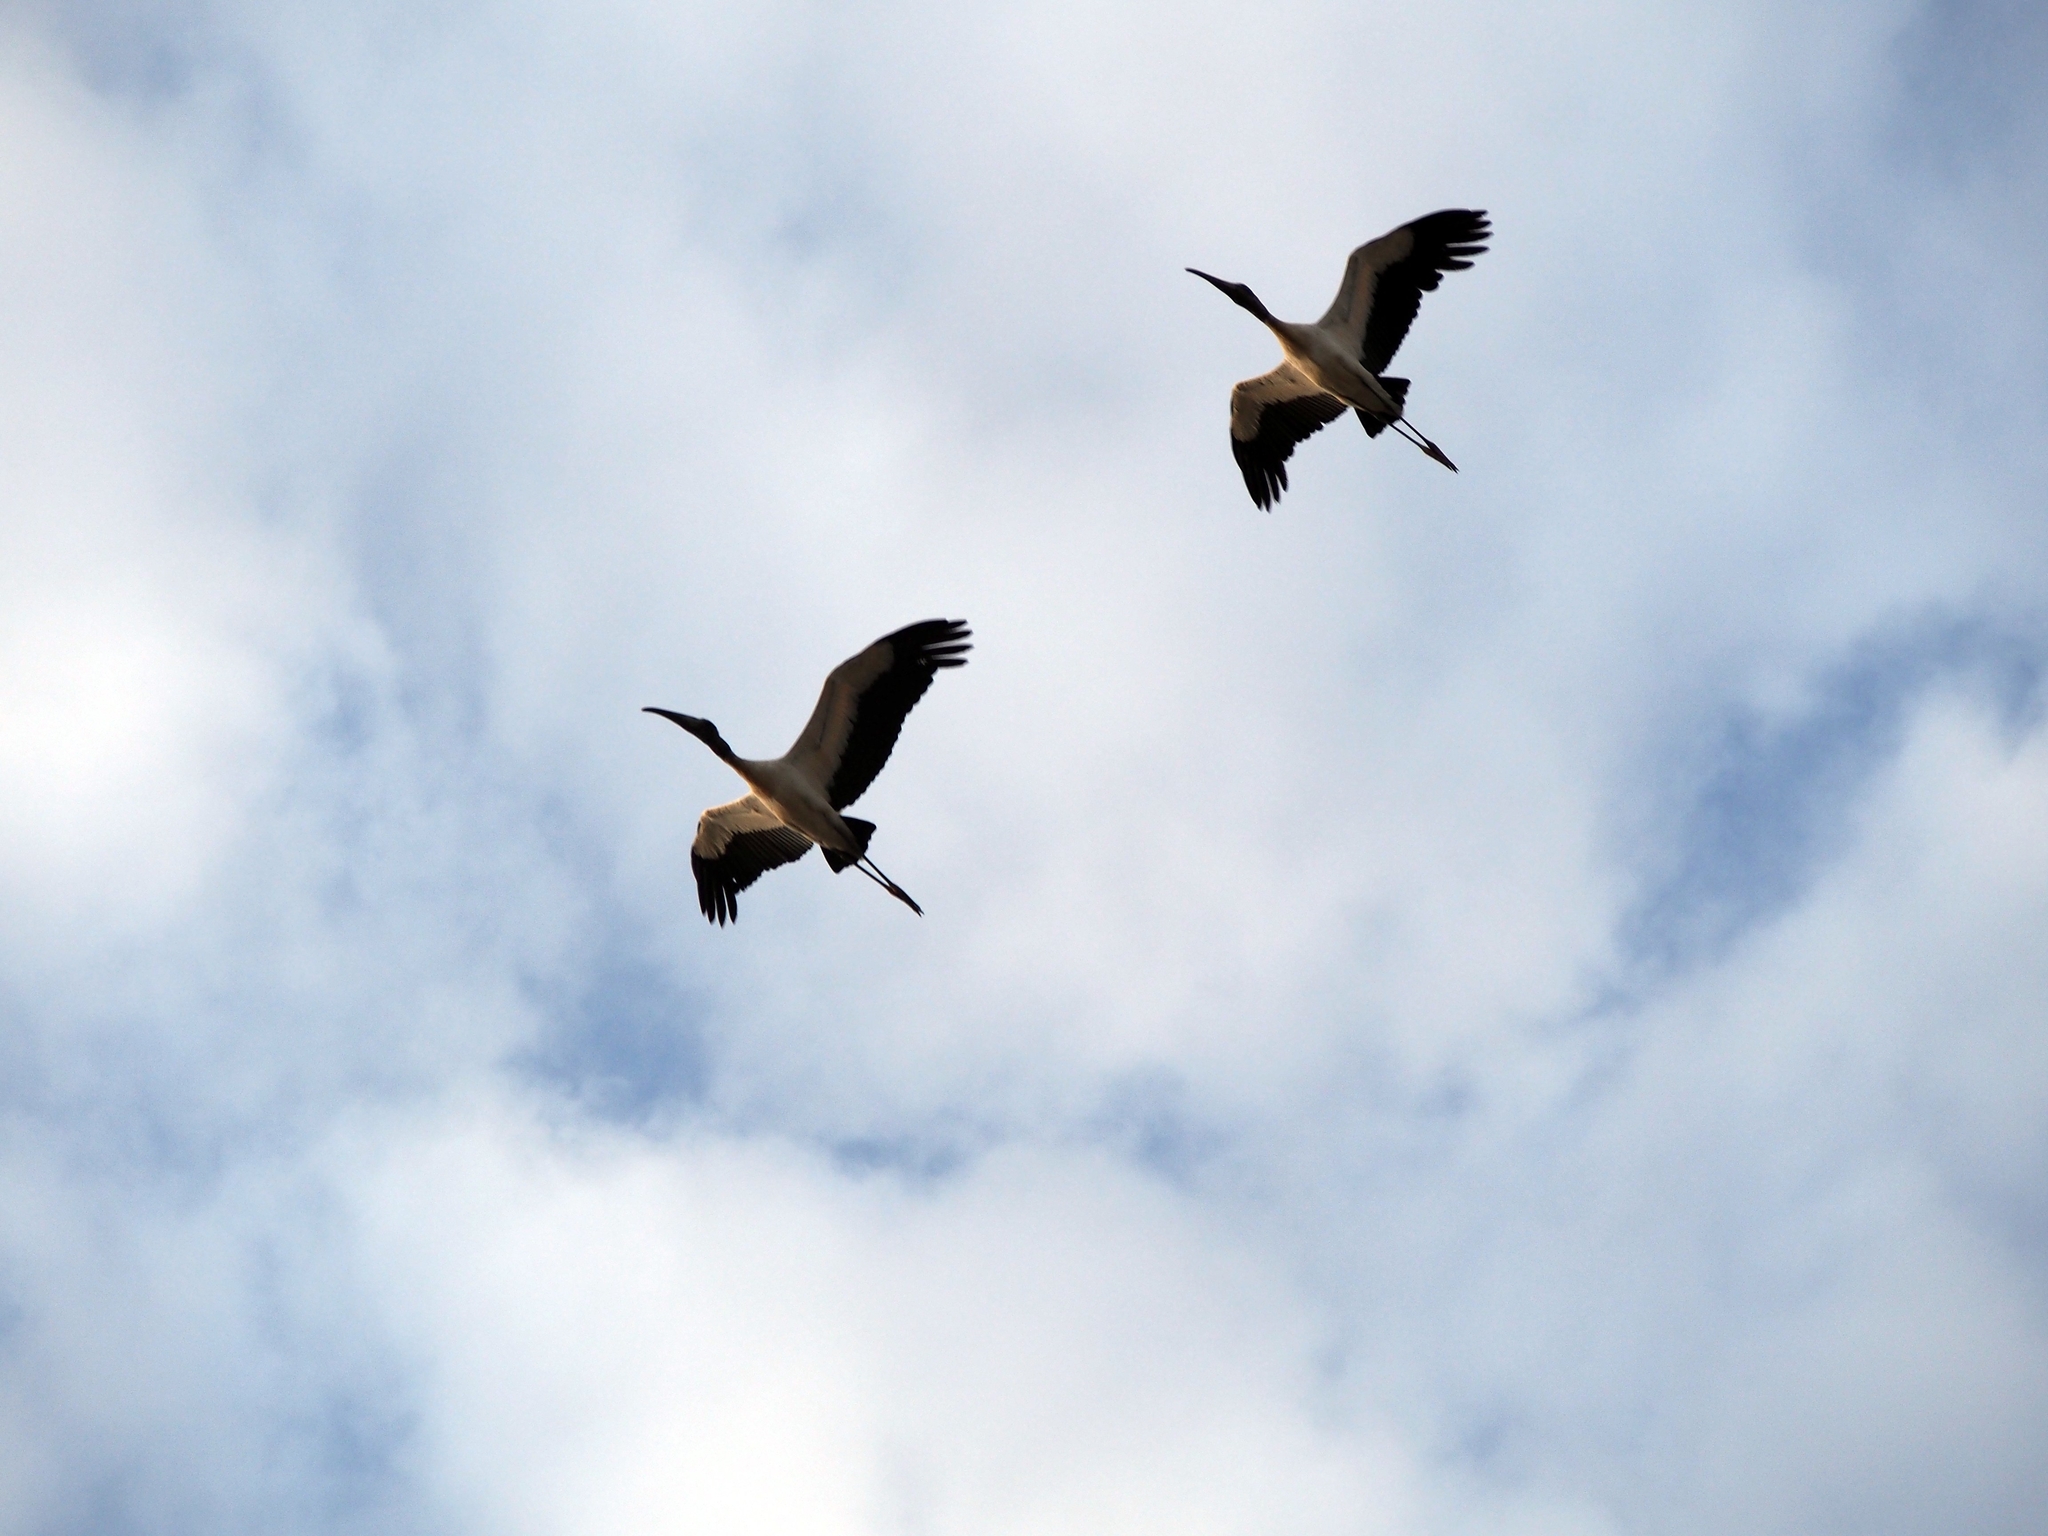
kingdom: Animalia
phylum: Chordata
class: Aves
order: Ciconiiformes
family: Ciconiidae
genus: Mycteria
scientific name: Mycteria americana
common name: Wood stork
